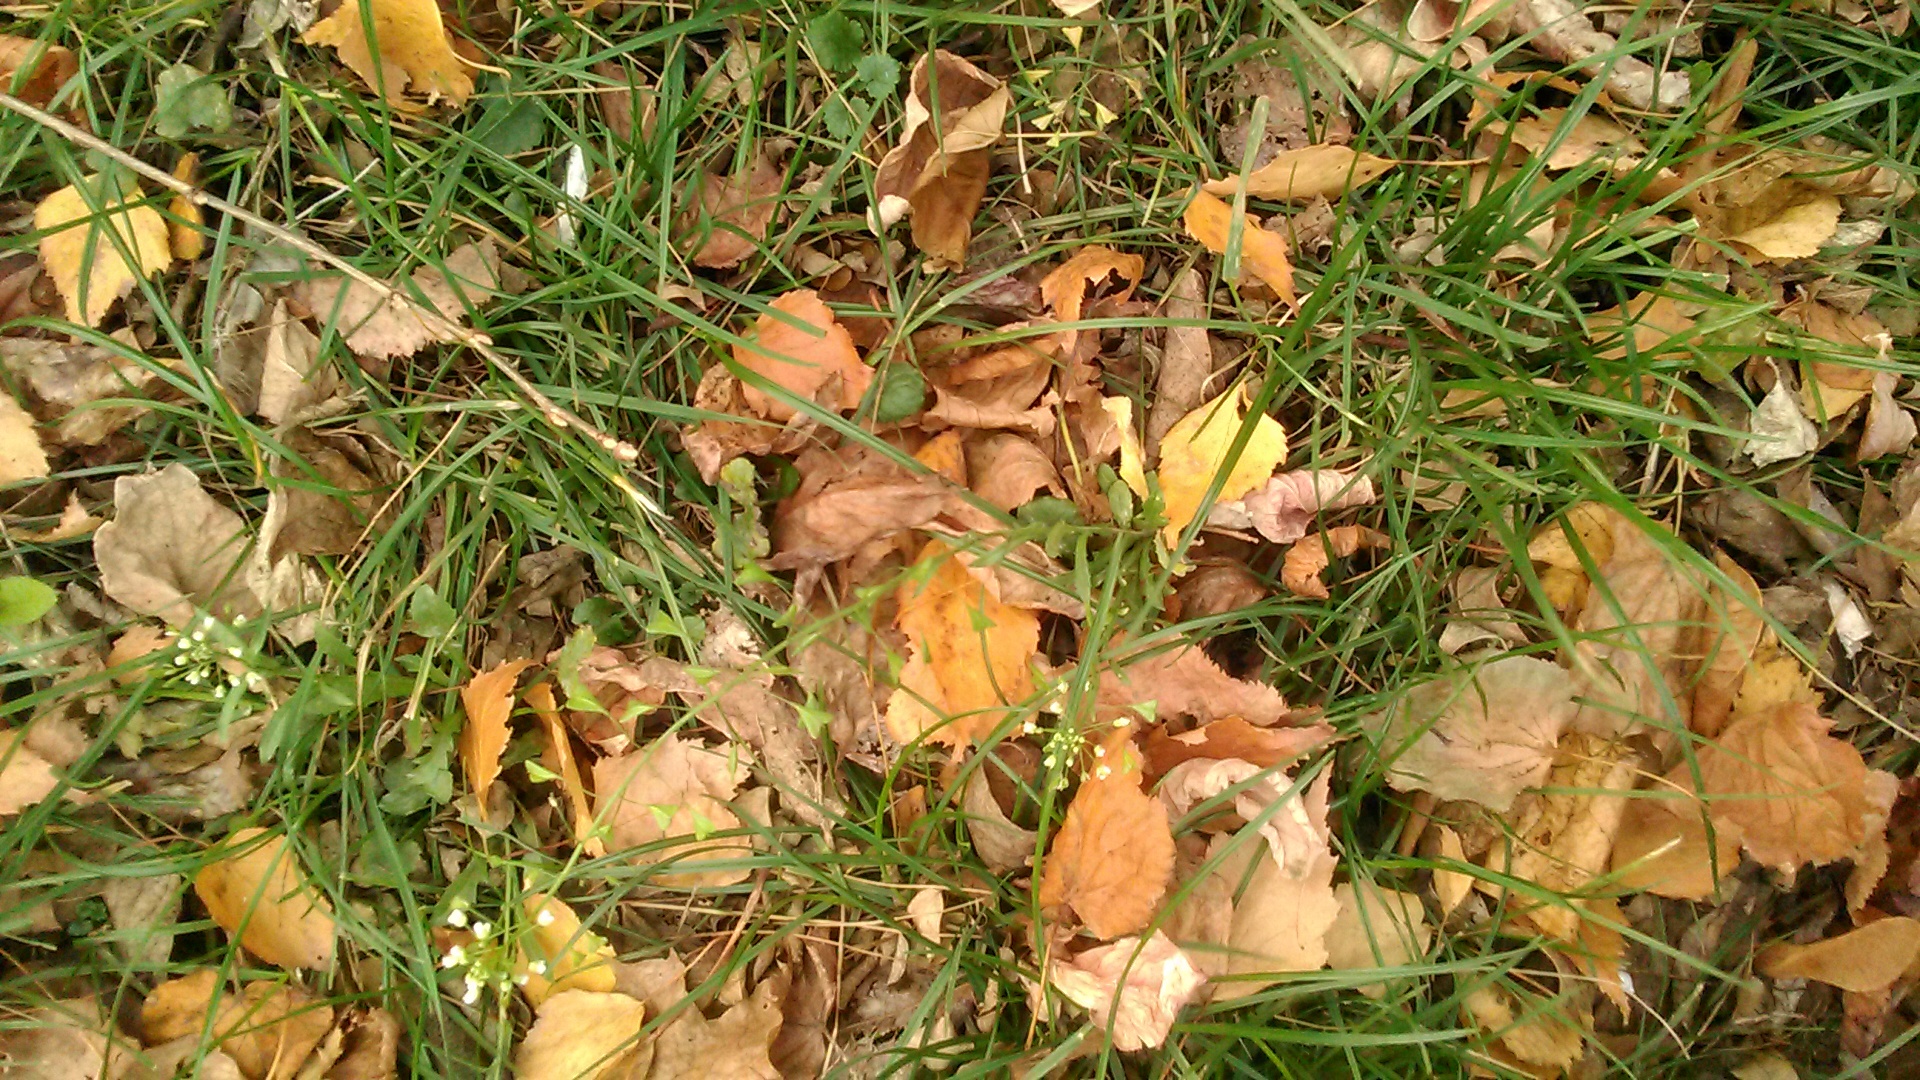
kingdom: Plantae
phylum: Tracheophyta
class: Magnoliopsida
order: Brassicales
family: Brassicaceae
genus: Capsella
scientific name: Capsella bursa-pastoris
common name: Shepherd's purse
